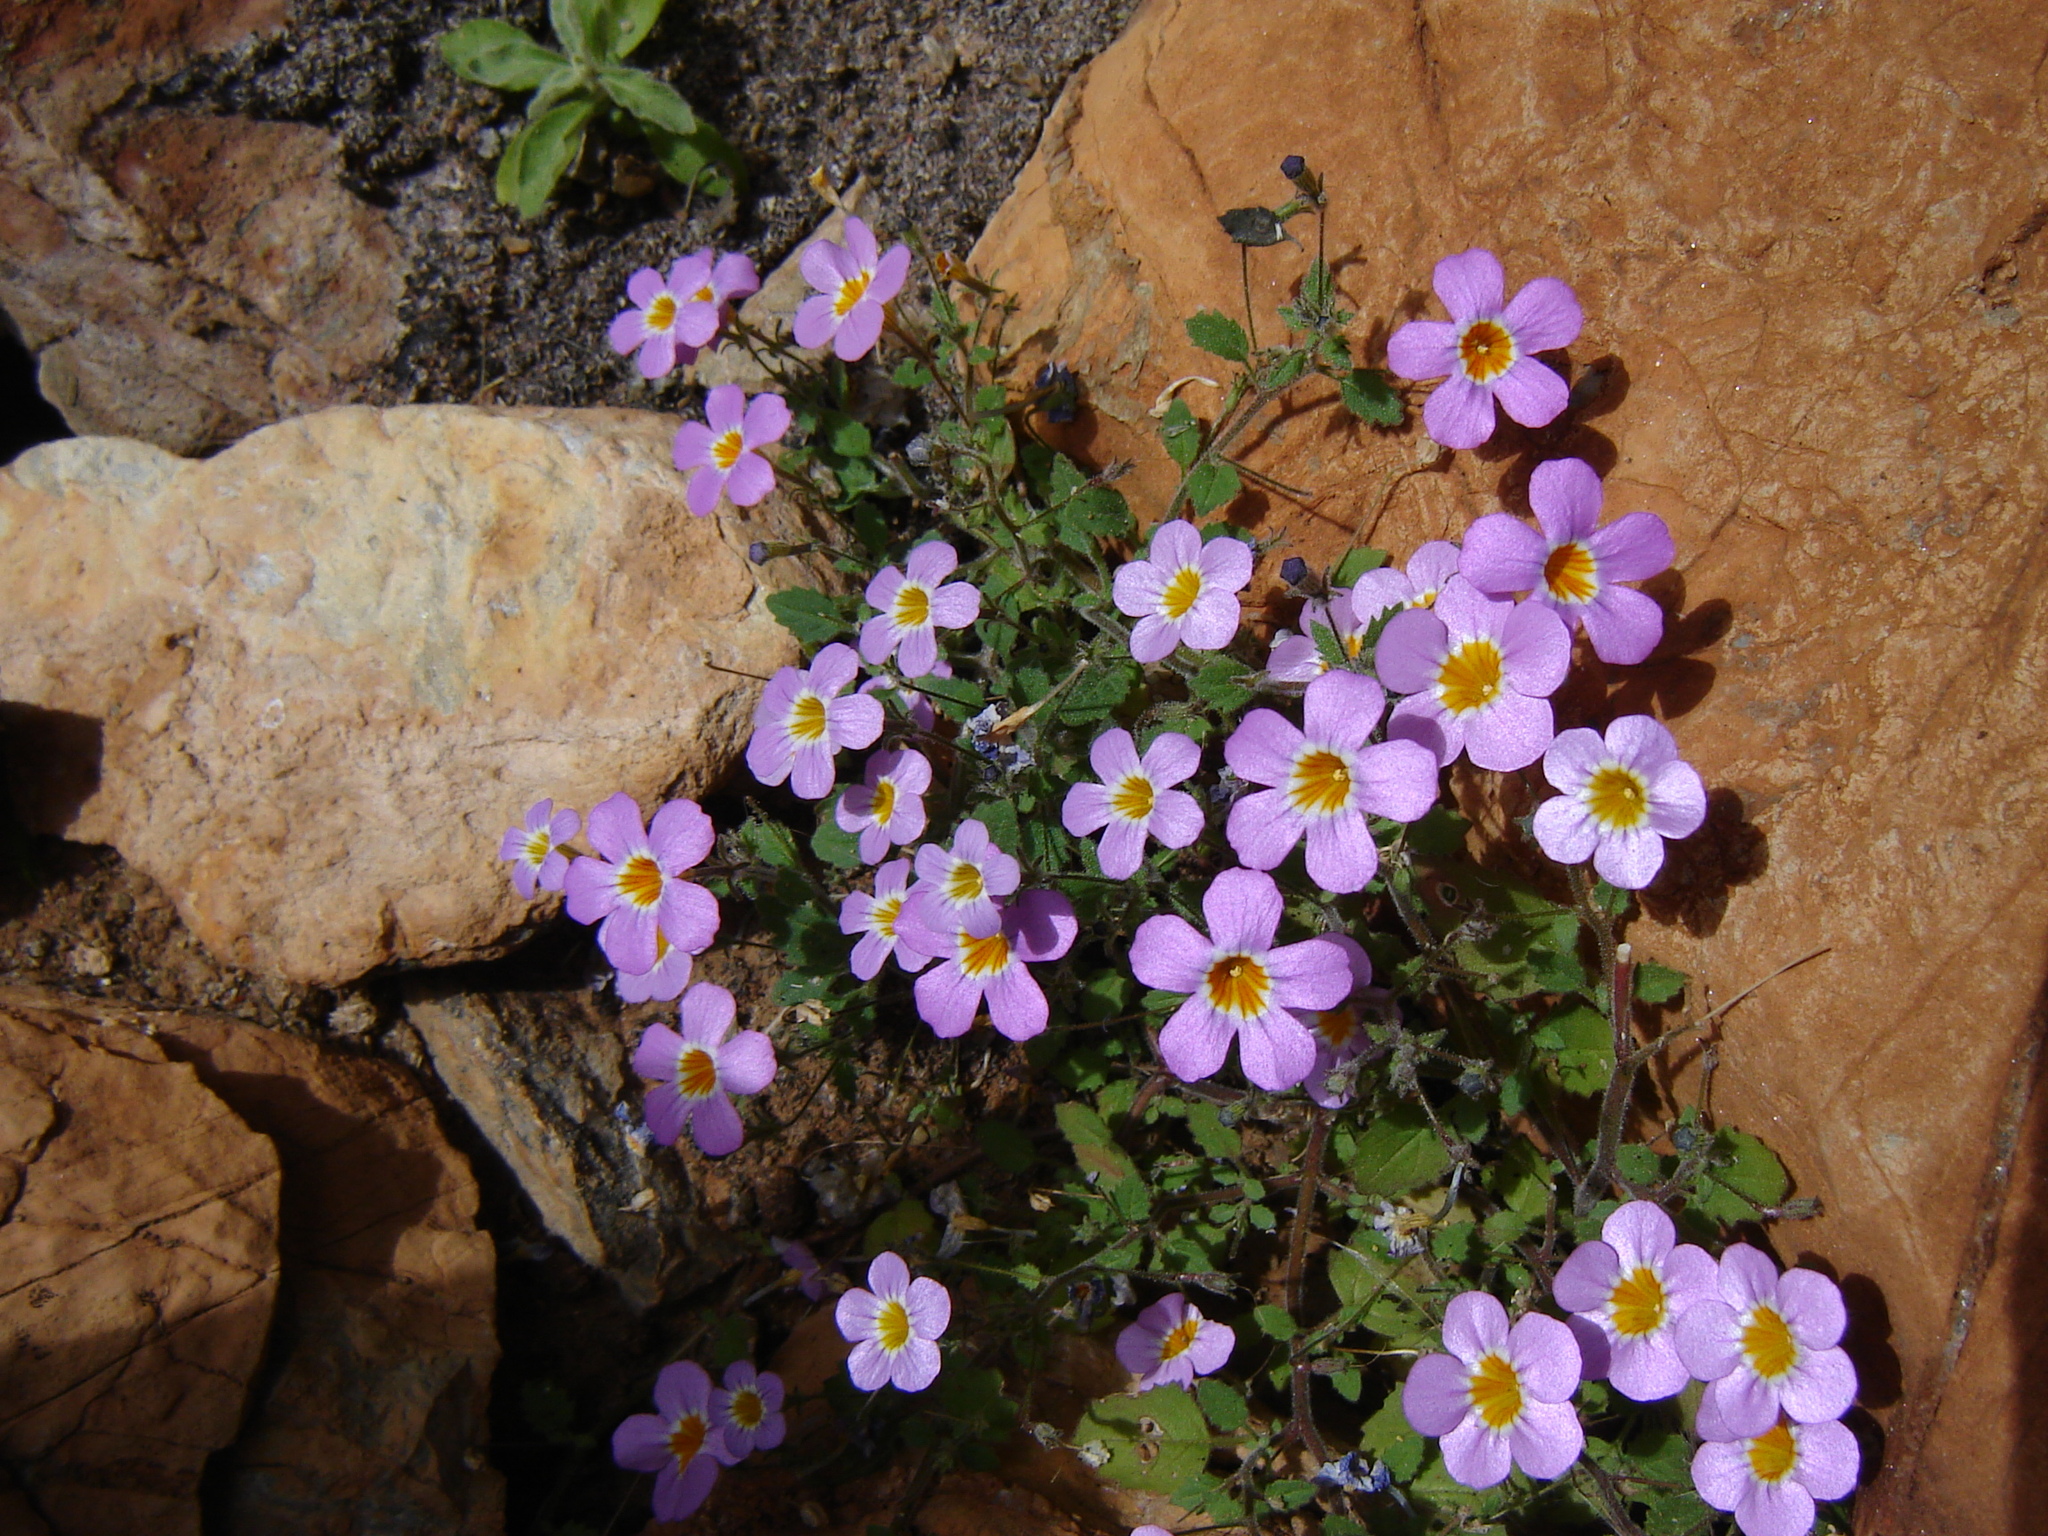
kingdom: Plantae
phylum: Tracheophyta
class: Magnoliopsida
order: Lamiales
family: Scrophulariaceae
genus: Jamesbrittenia
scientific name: Jamesbrittenia primuliflora
